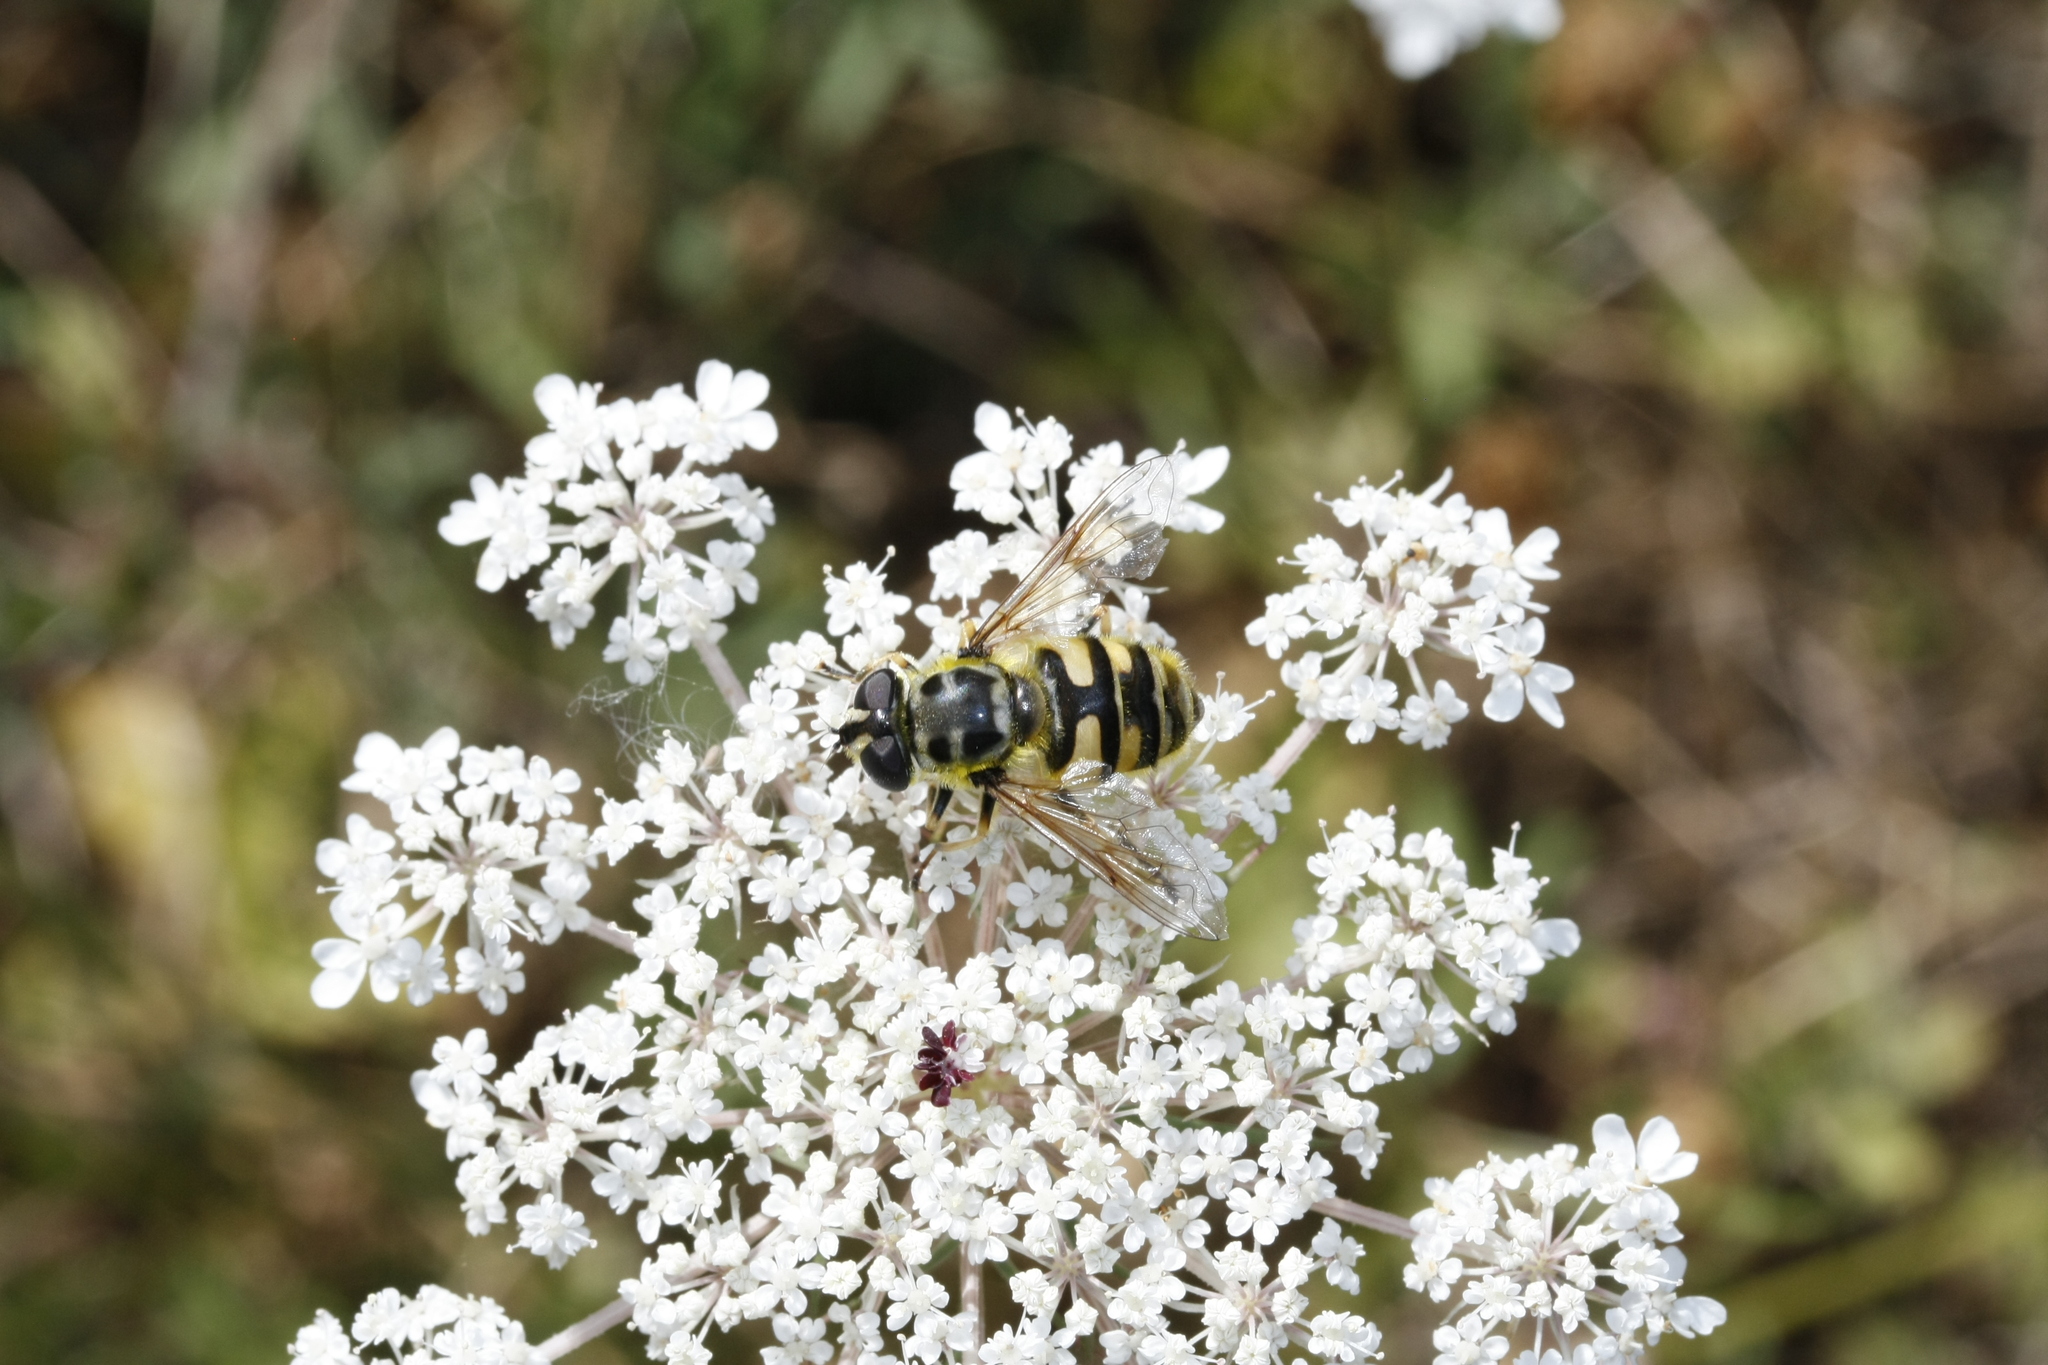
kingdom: Animalia
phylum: Arthropoda
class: Insecta
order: Diptera
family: Syrphidae
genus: Myathropa
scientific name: Myathropa florea
